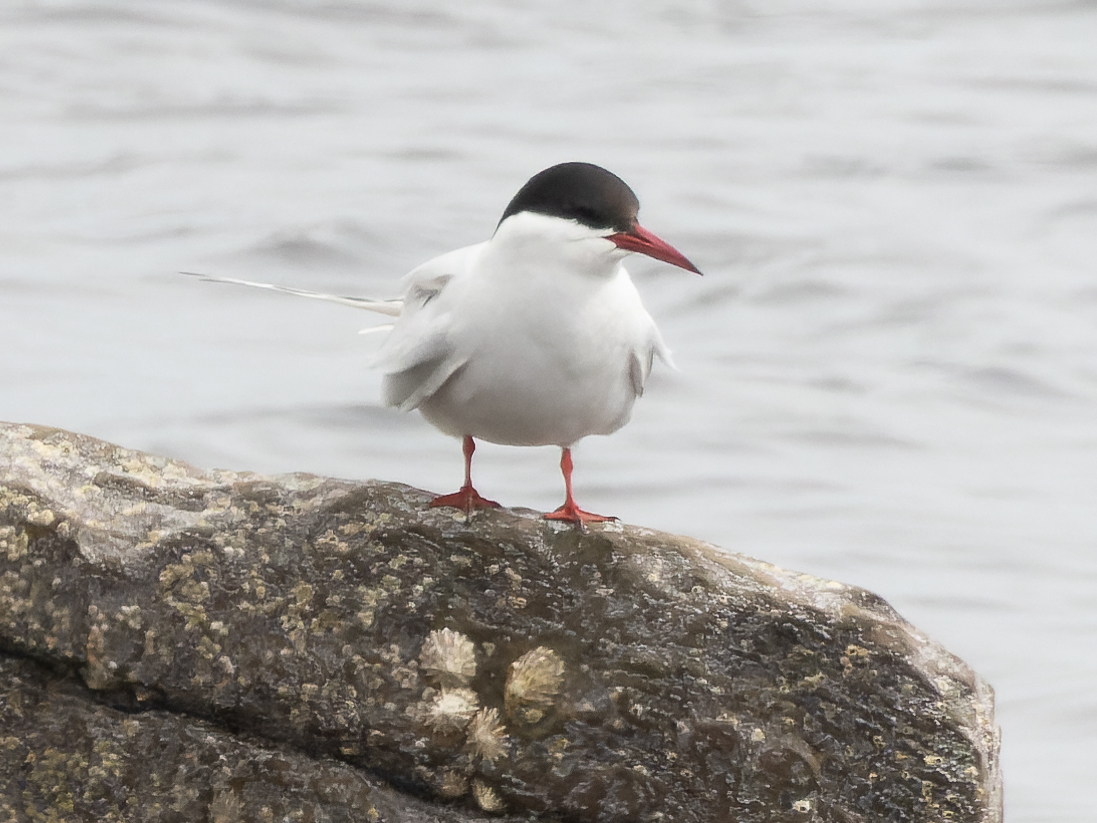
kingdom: Animalia
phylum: Chordata
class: Aves
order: Charadriiformes
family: Laridae
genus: Sterna
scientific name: Sterna paradisaea
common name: Arctic tern
